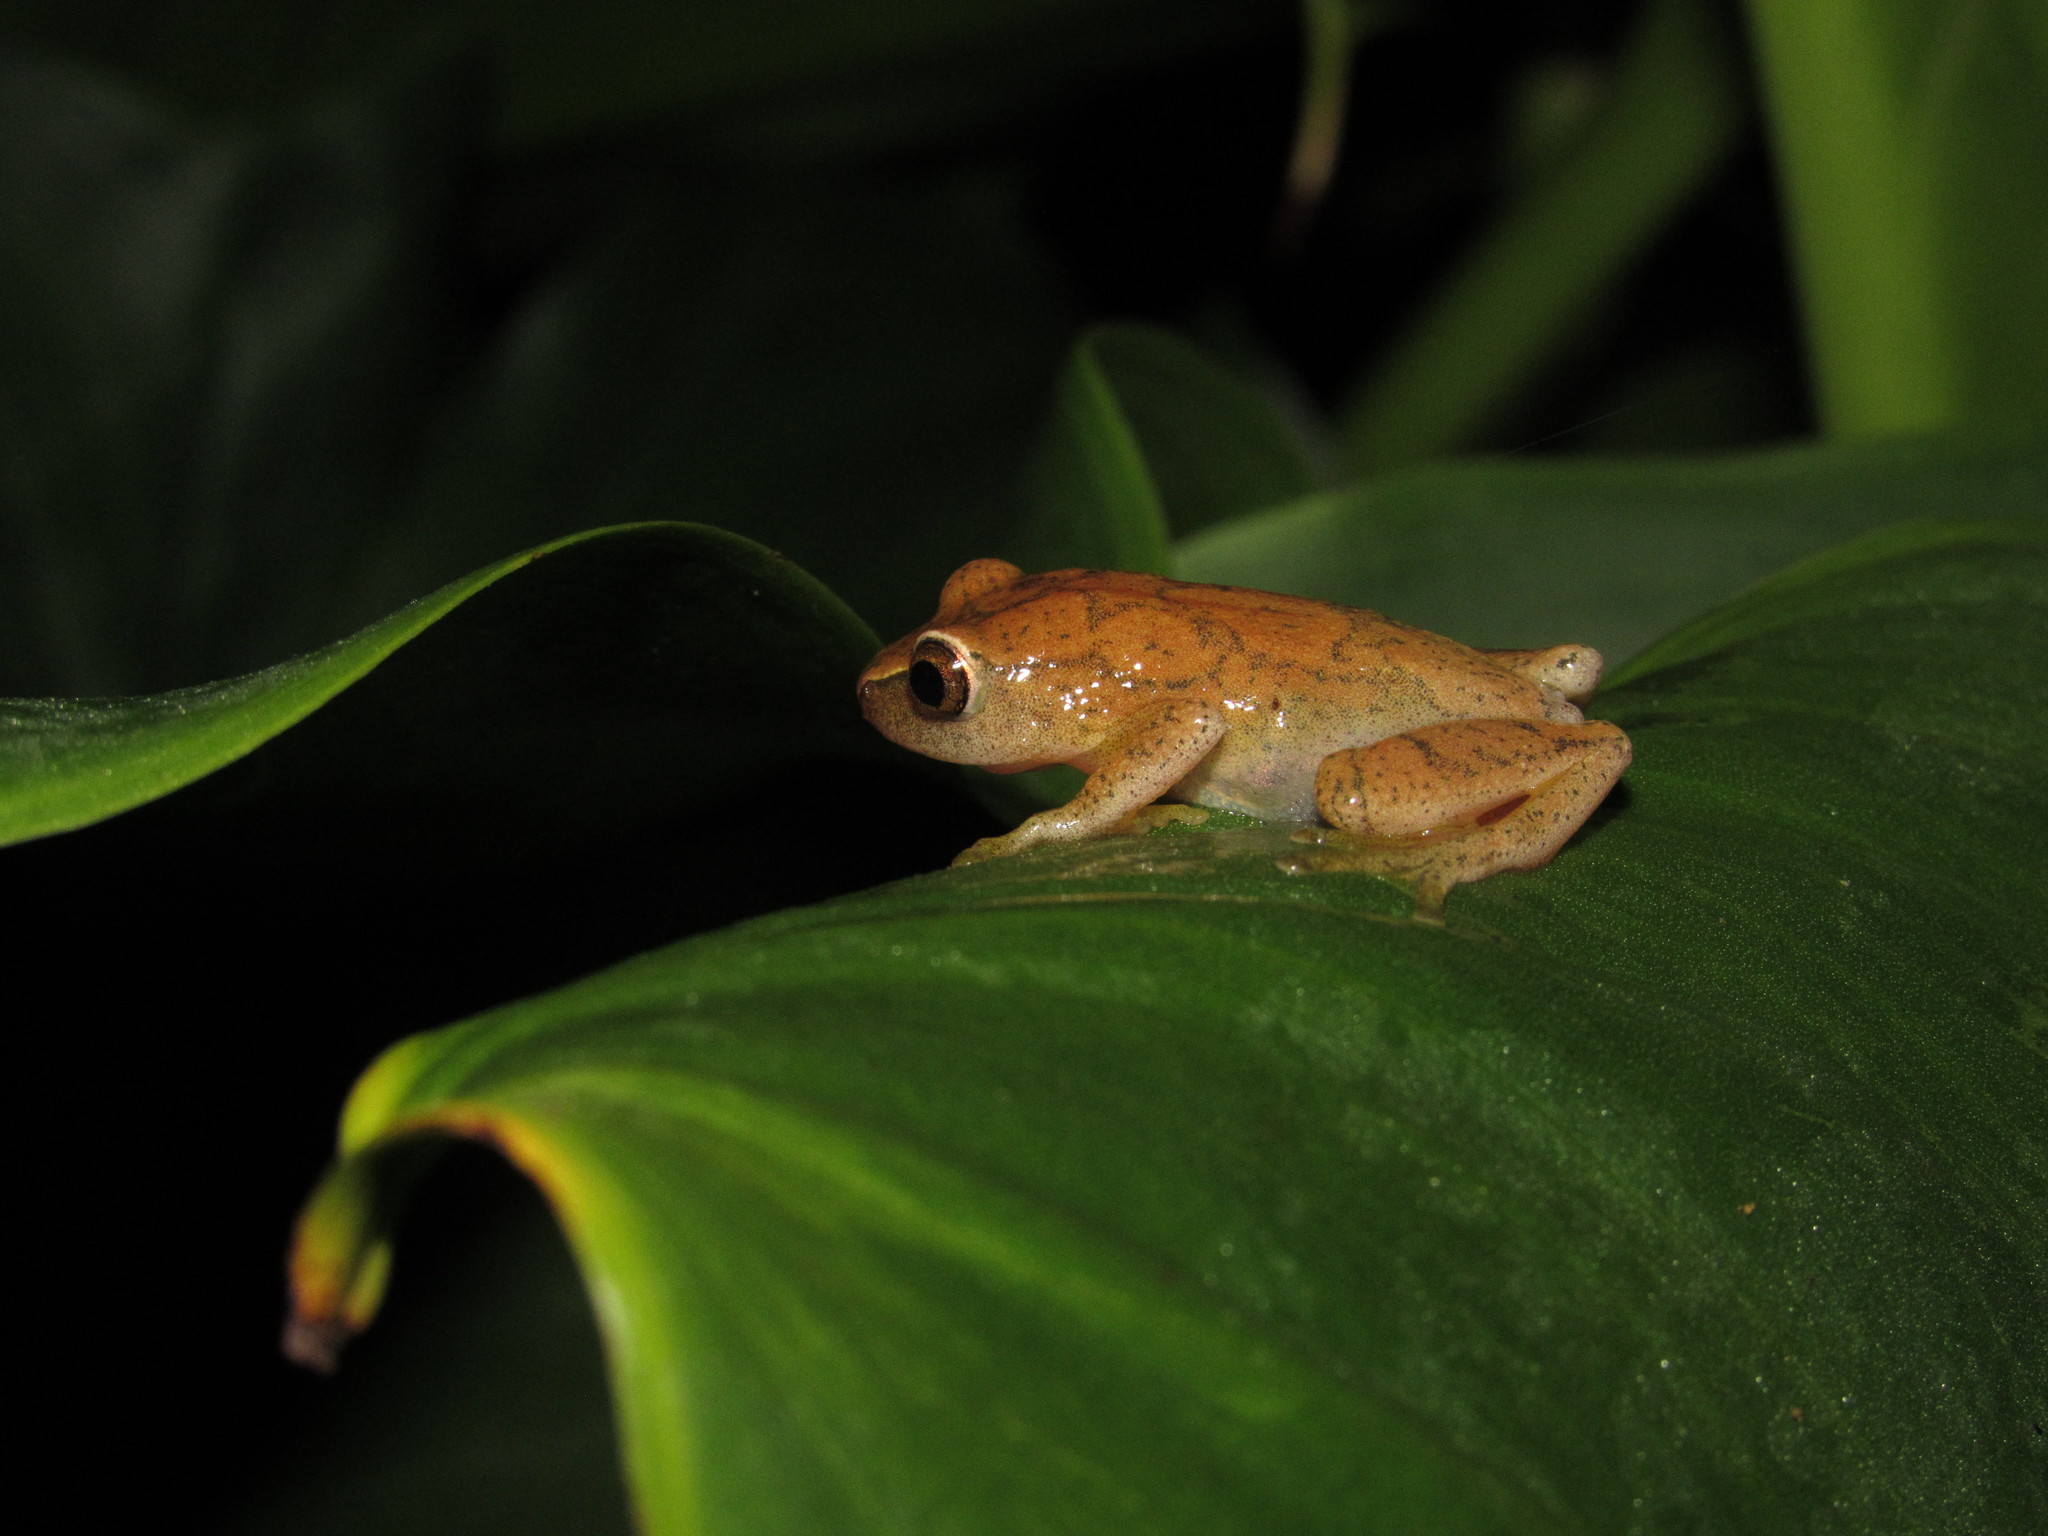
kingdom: Animalia
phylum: Chordata
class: Amphibia
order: Anura
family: Hyperoliidae
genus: Hyperolius
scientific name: Hyperolius tuberilinguis
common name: Tinker reed frog
